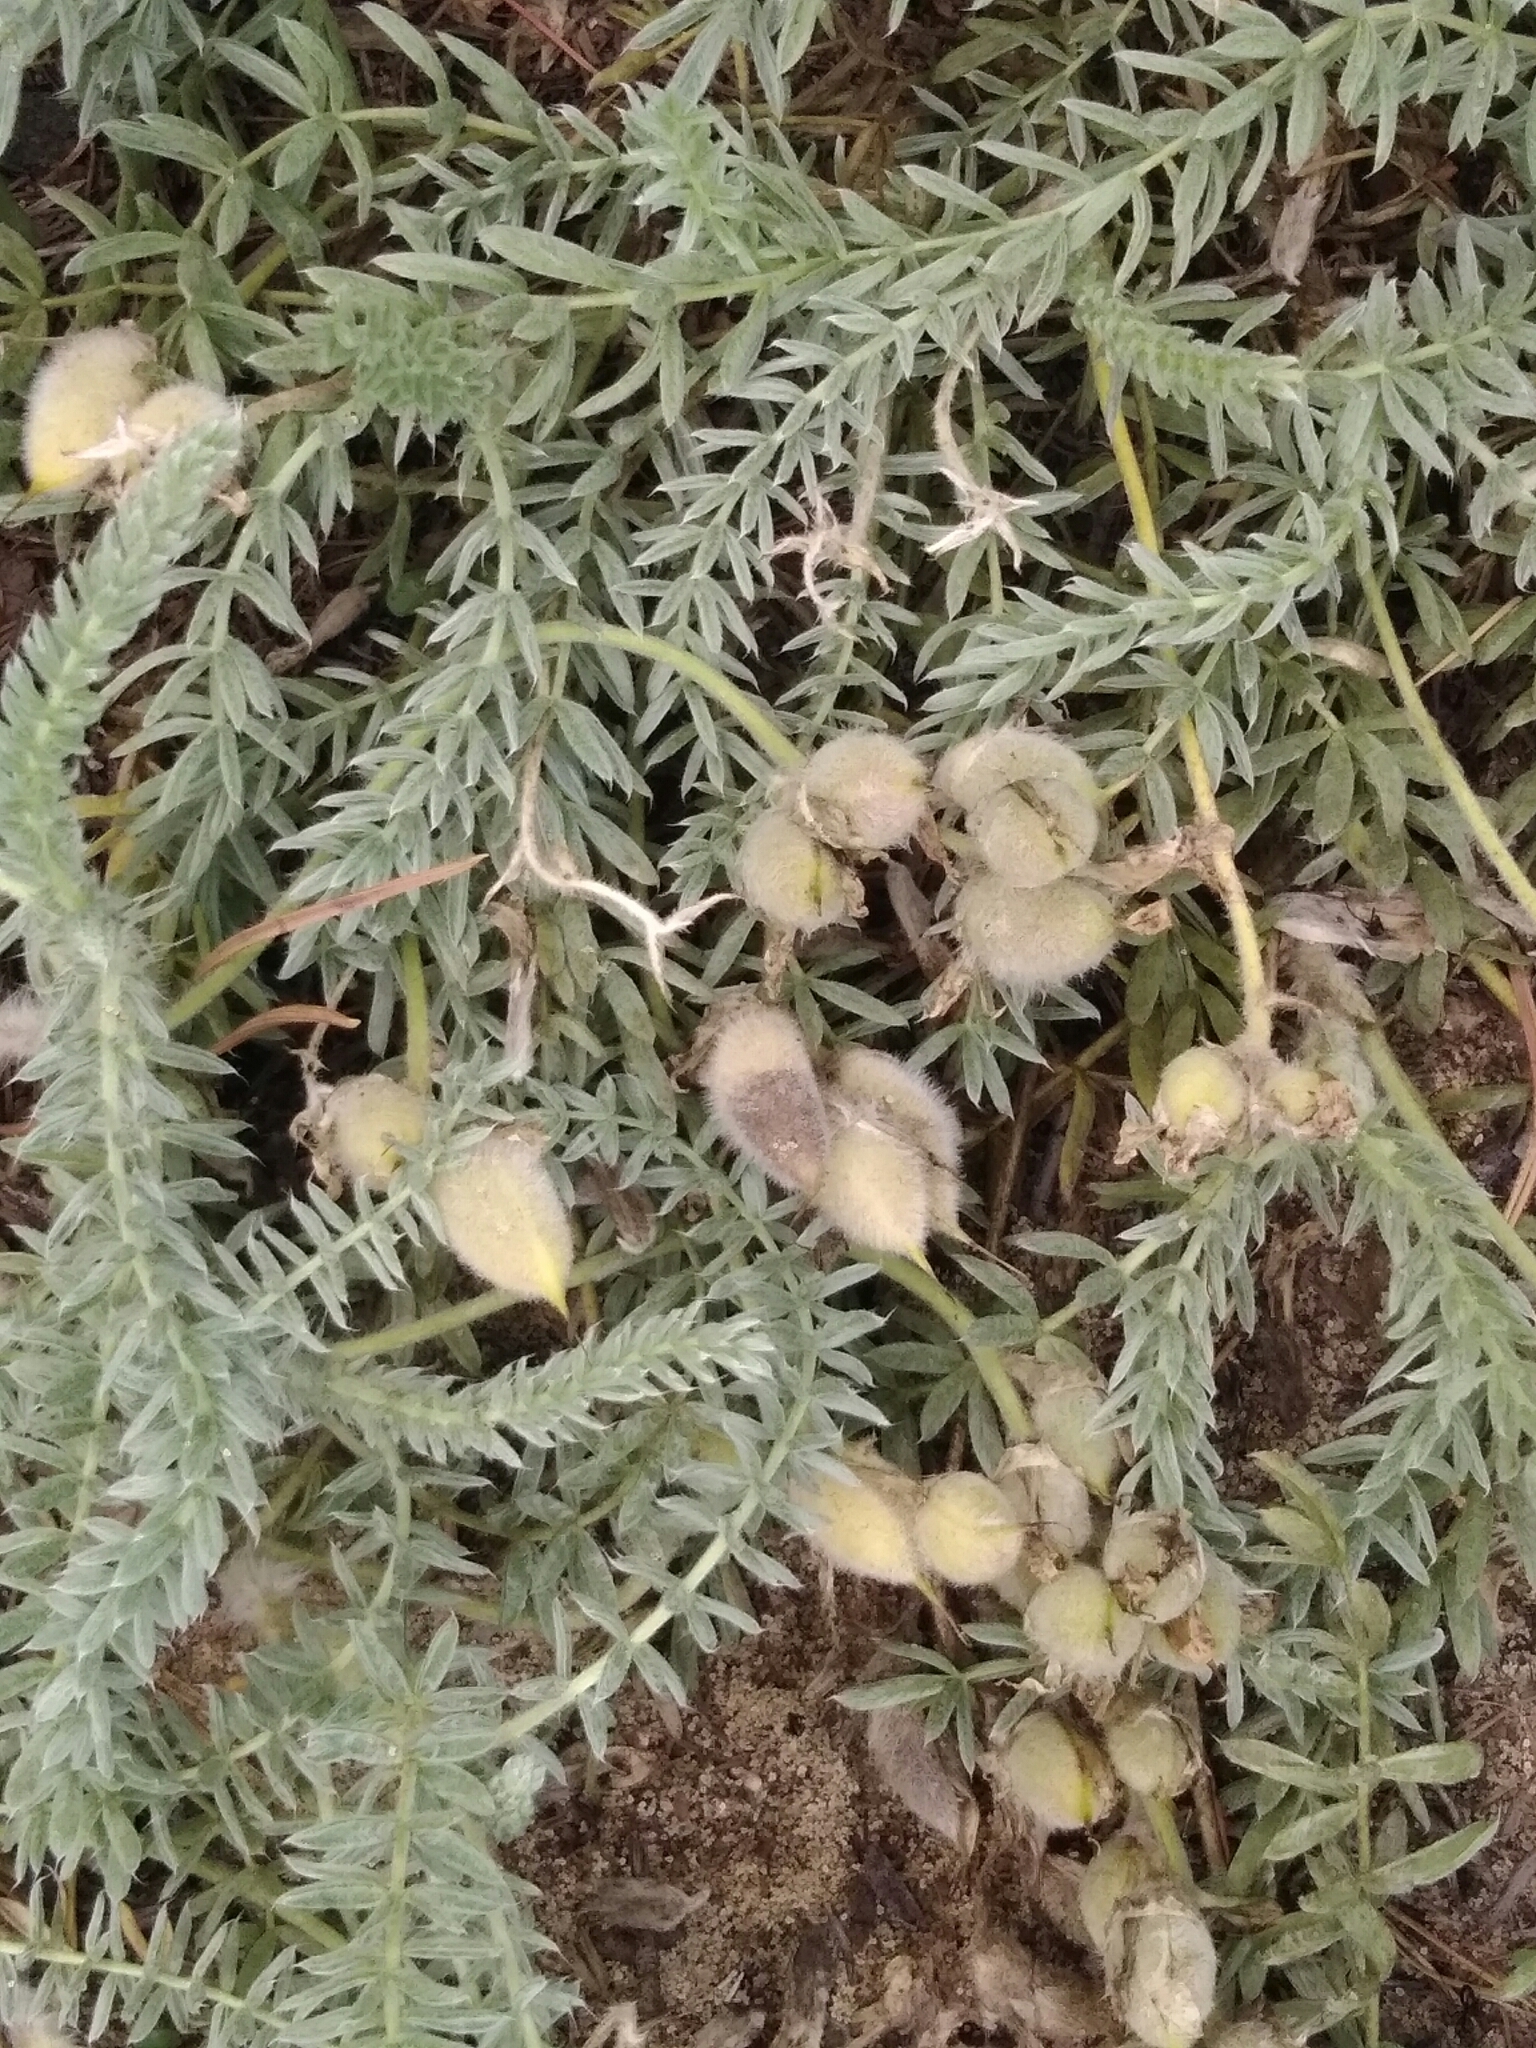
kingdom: Plantae
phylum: Tracheophyta
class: Magnoliopsida
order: Fabales
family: Fabaceae
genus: Oxytropis
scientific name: Oxytropis lanata
